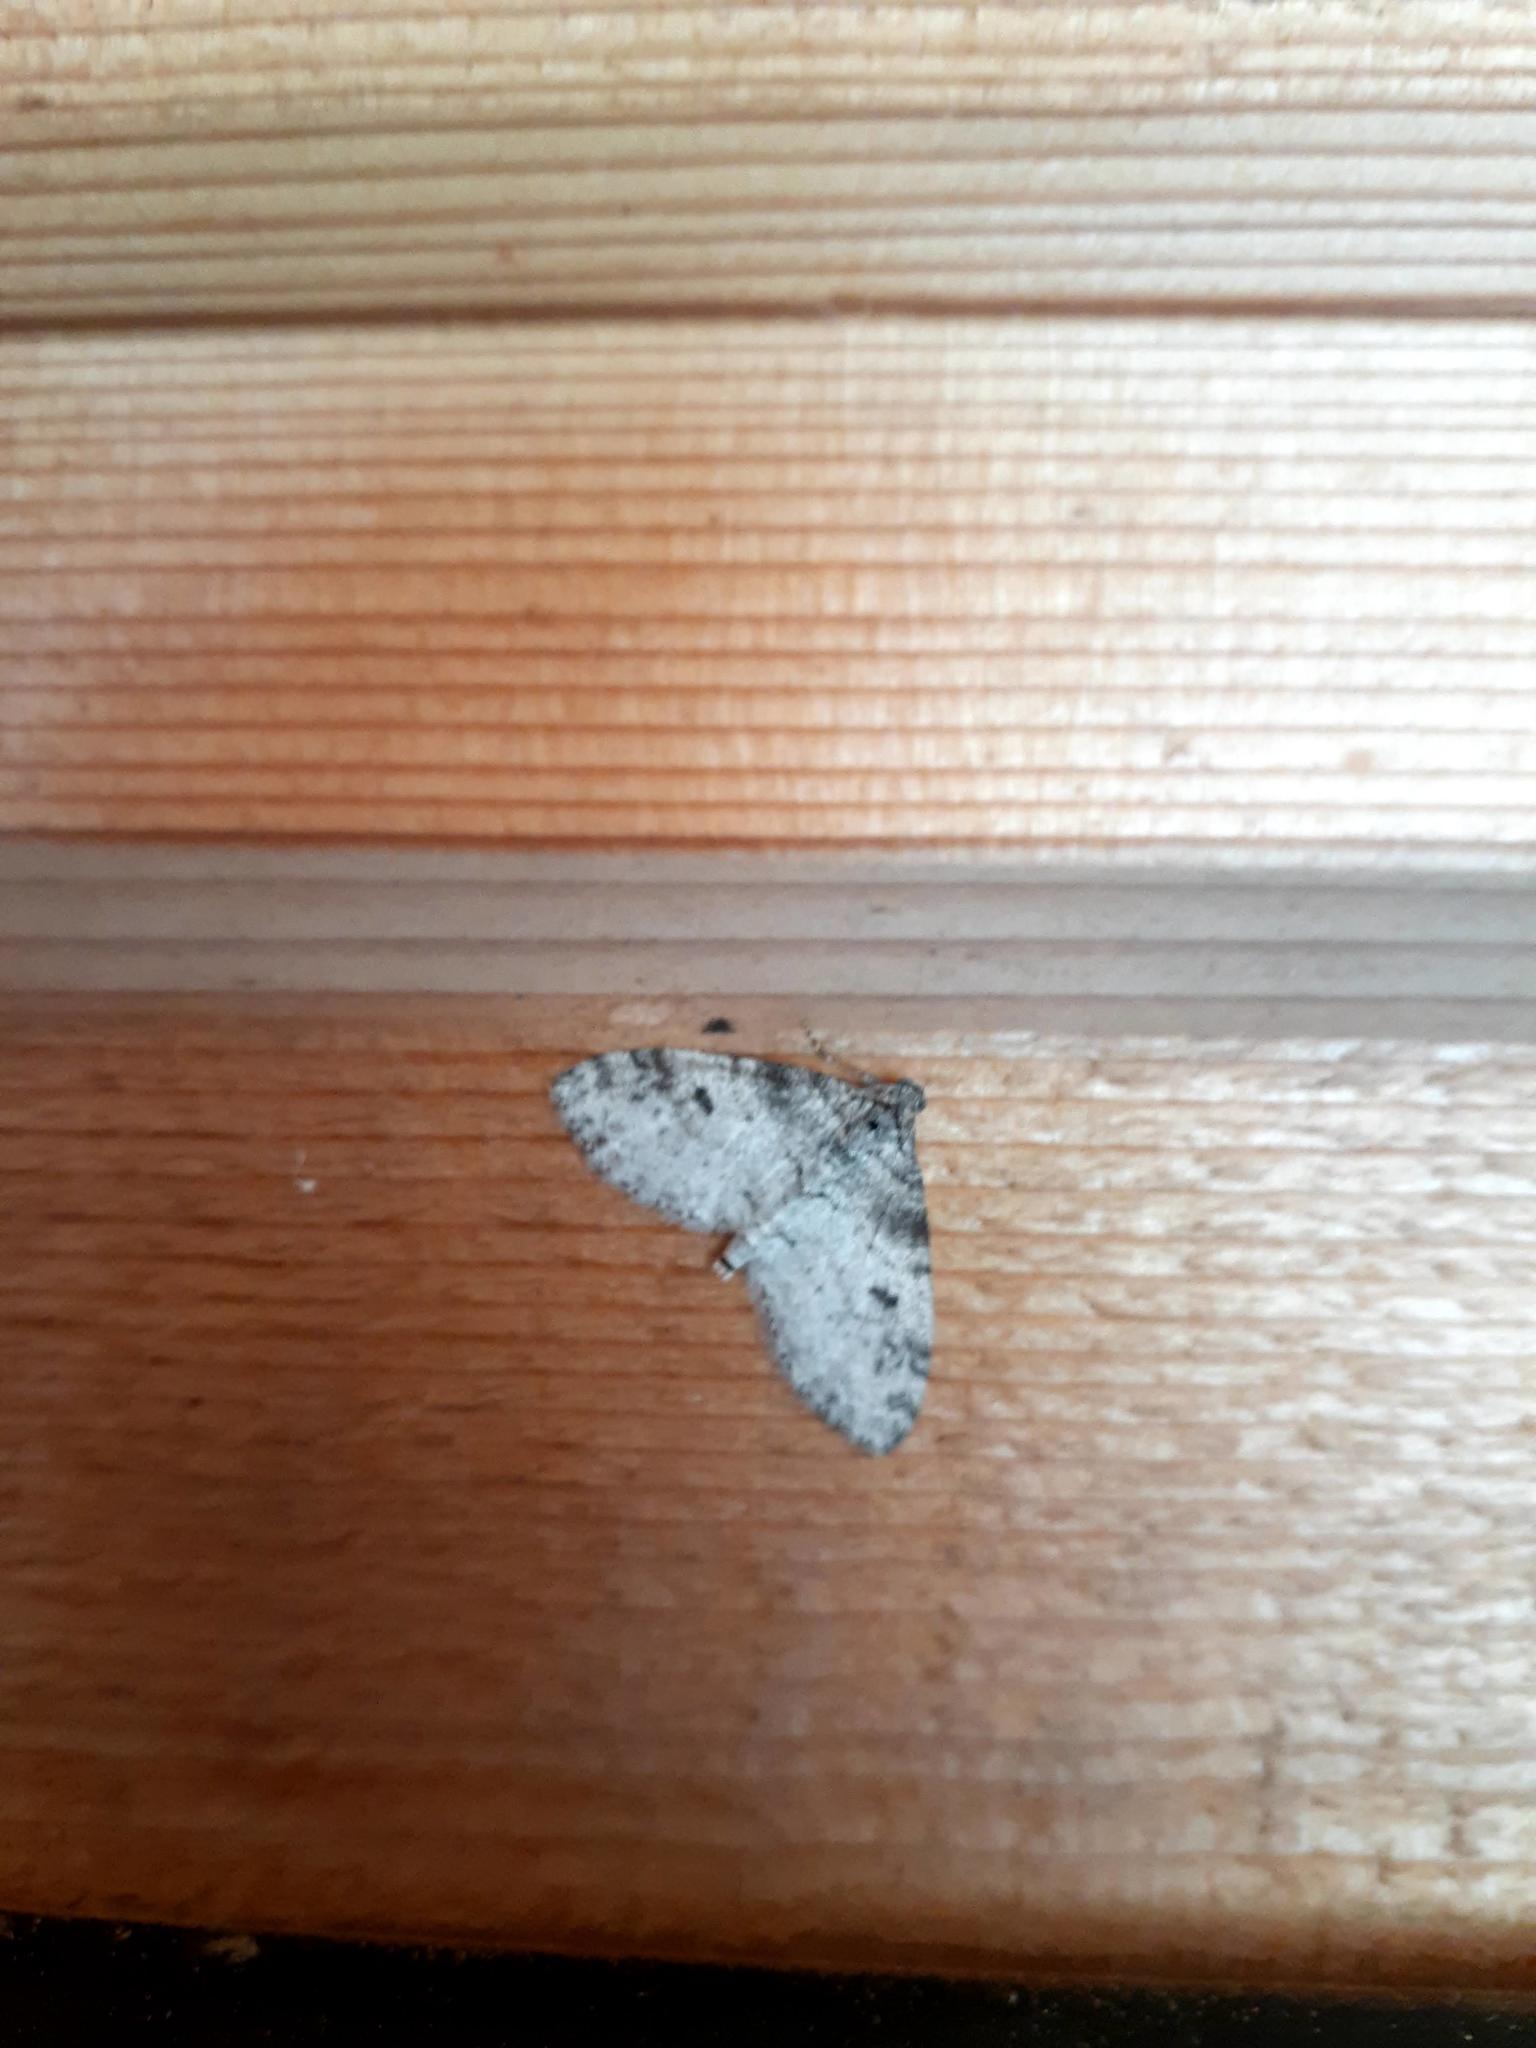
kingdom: Animalia
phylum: Arthropoda
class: Insecta
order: Lepidoptera
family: Geometridae
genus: Lobophora
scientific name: Lobophora nivigerata
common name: Powdered bigwing
